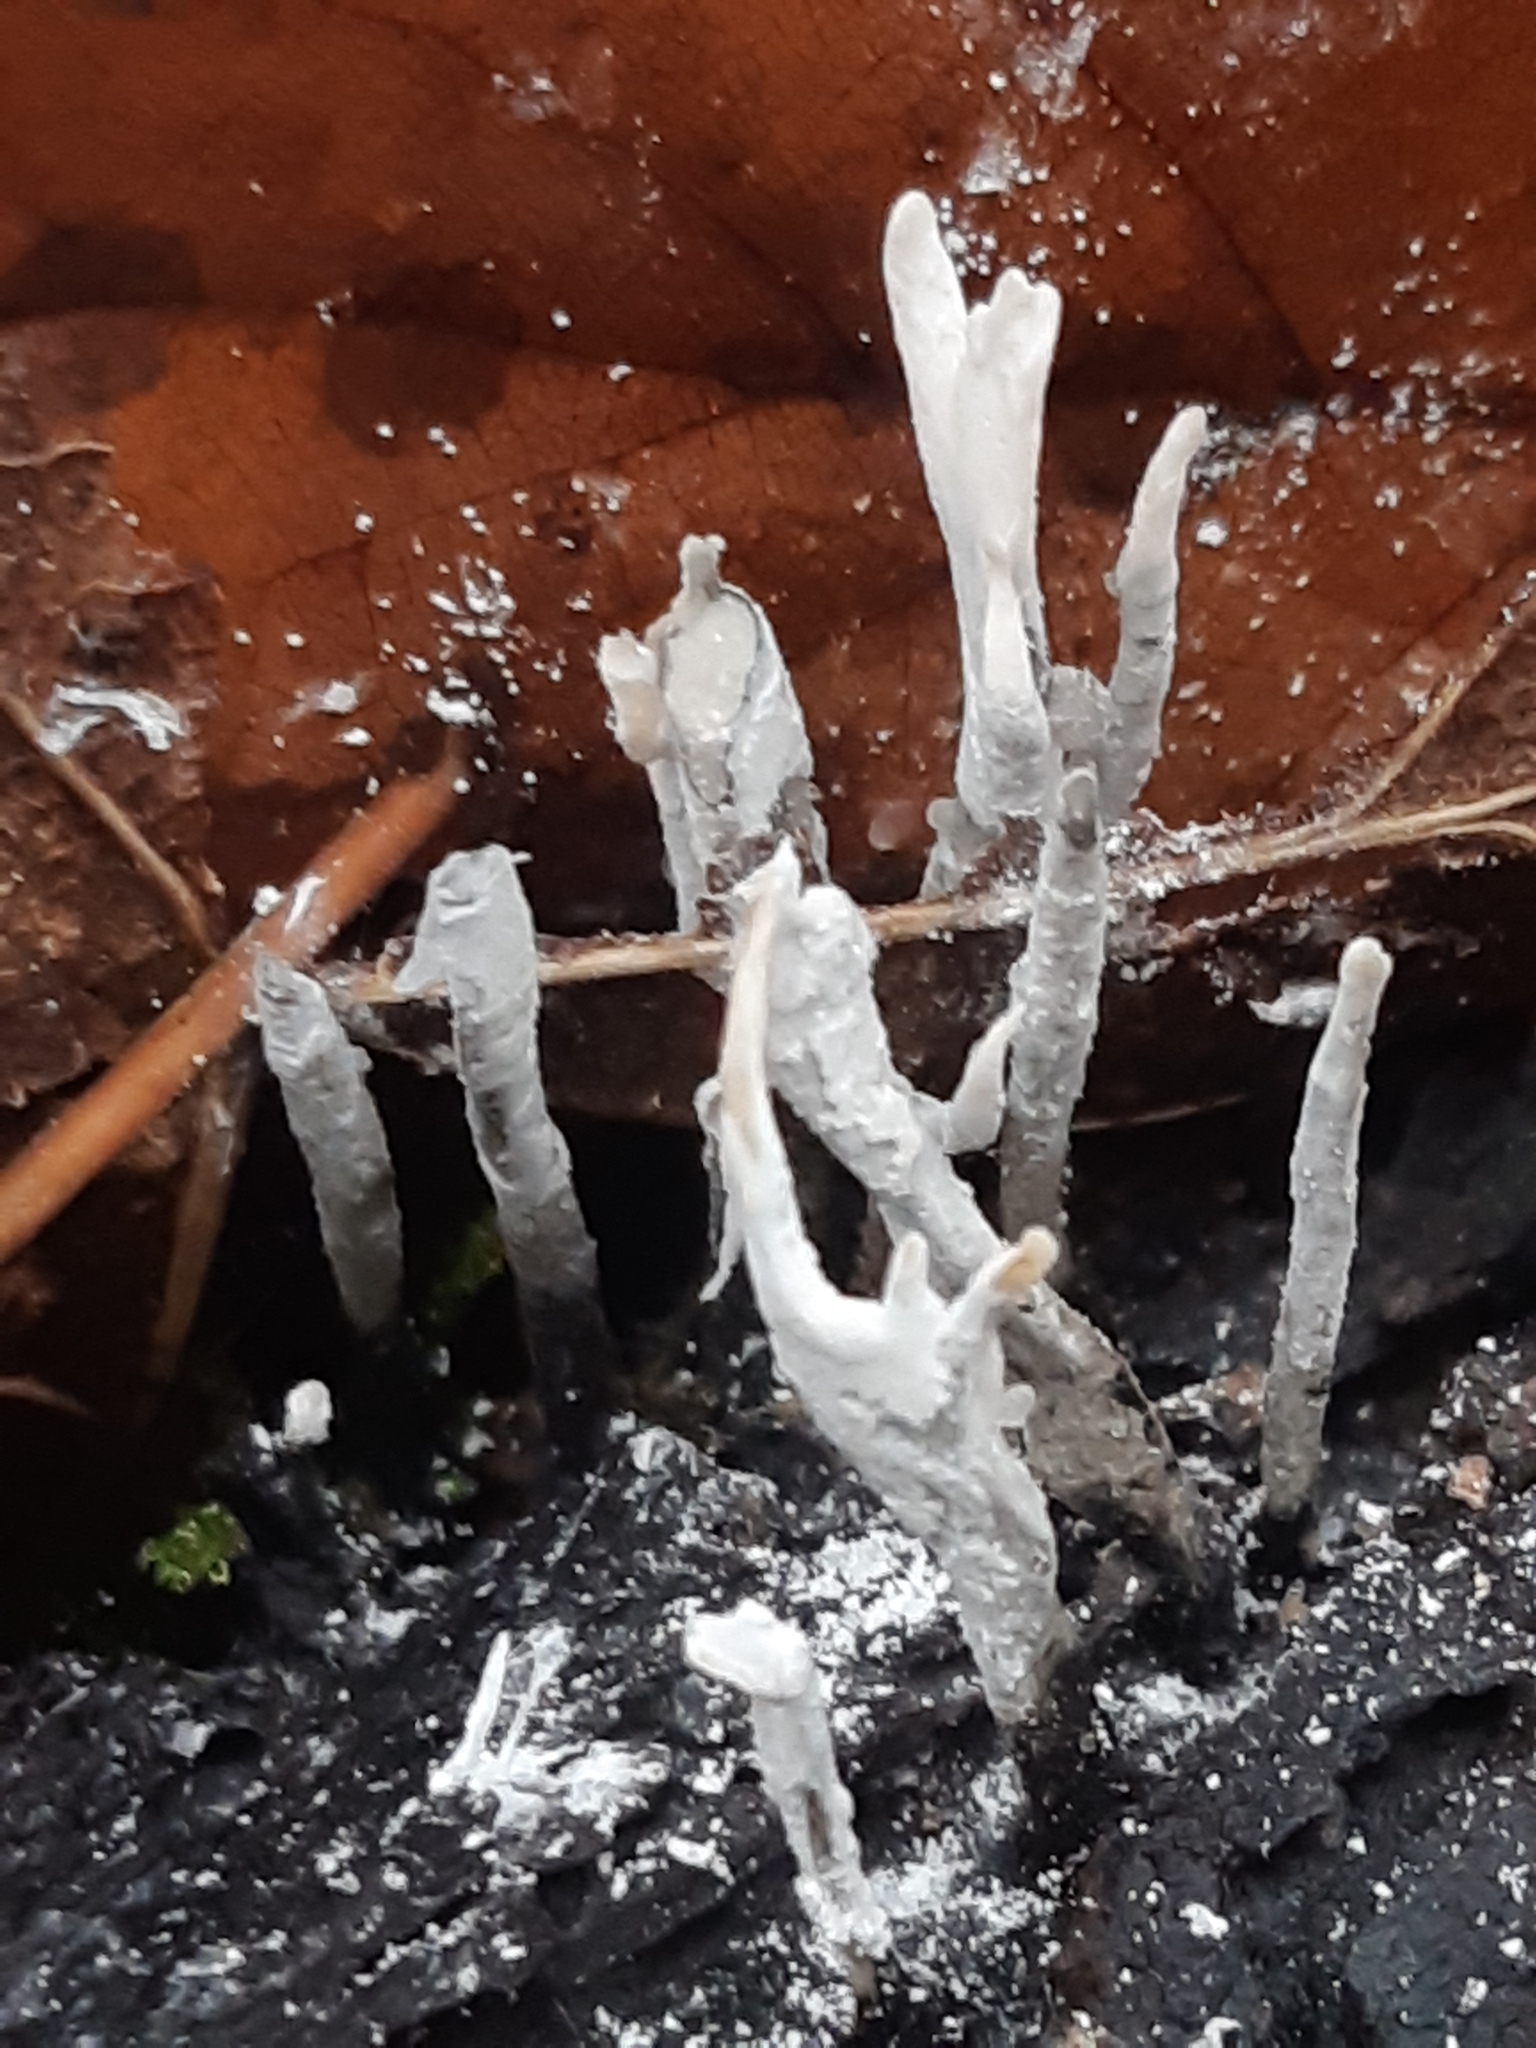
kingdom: Fungi
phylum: Ascomycota
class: Sordariomycetes
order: Xylariales
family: Xylariaceae
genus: Xylaria
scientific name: Xylaria hypoxylon
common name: Candle-snuff fungus
